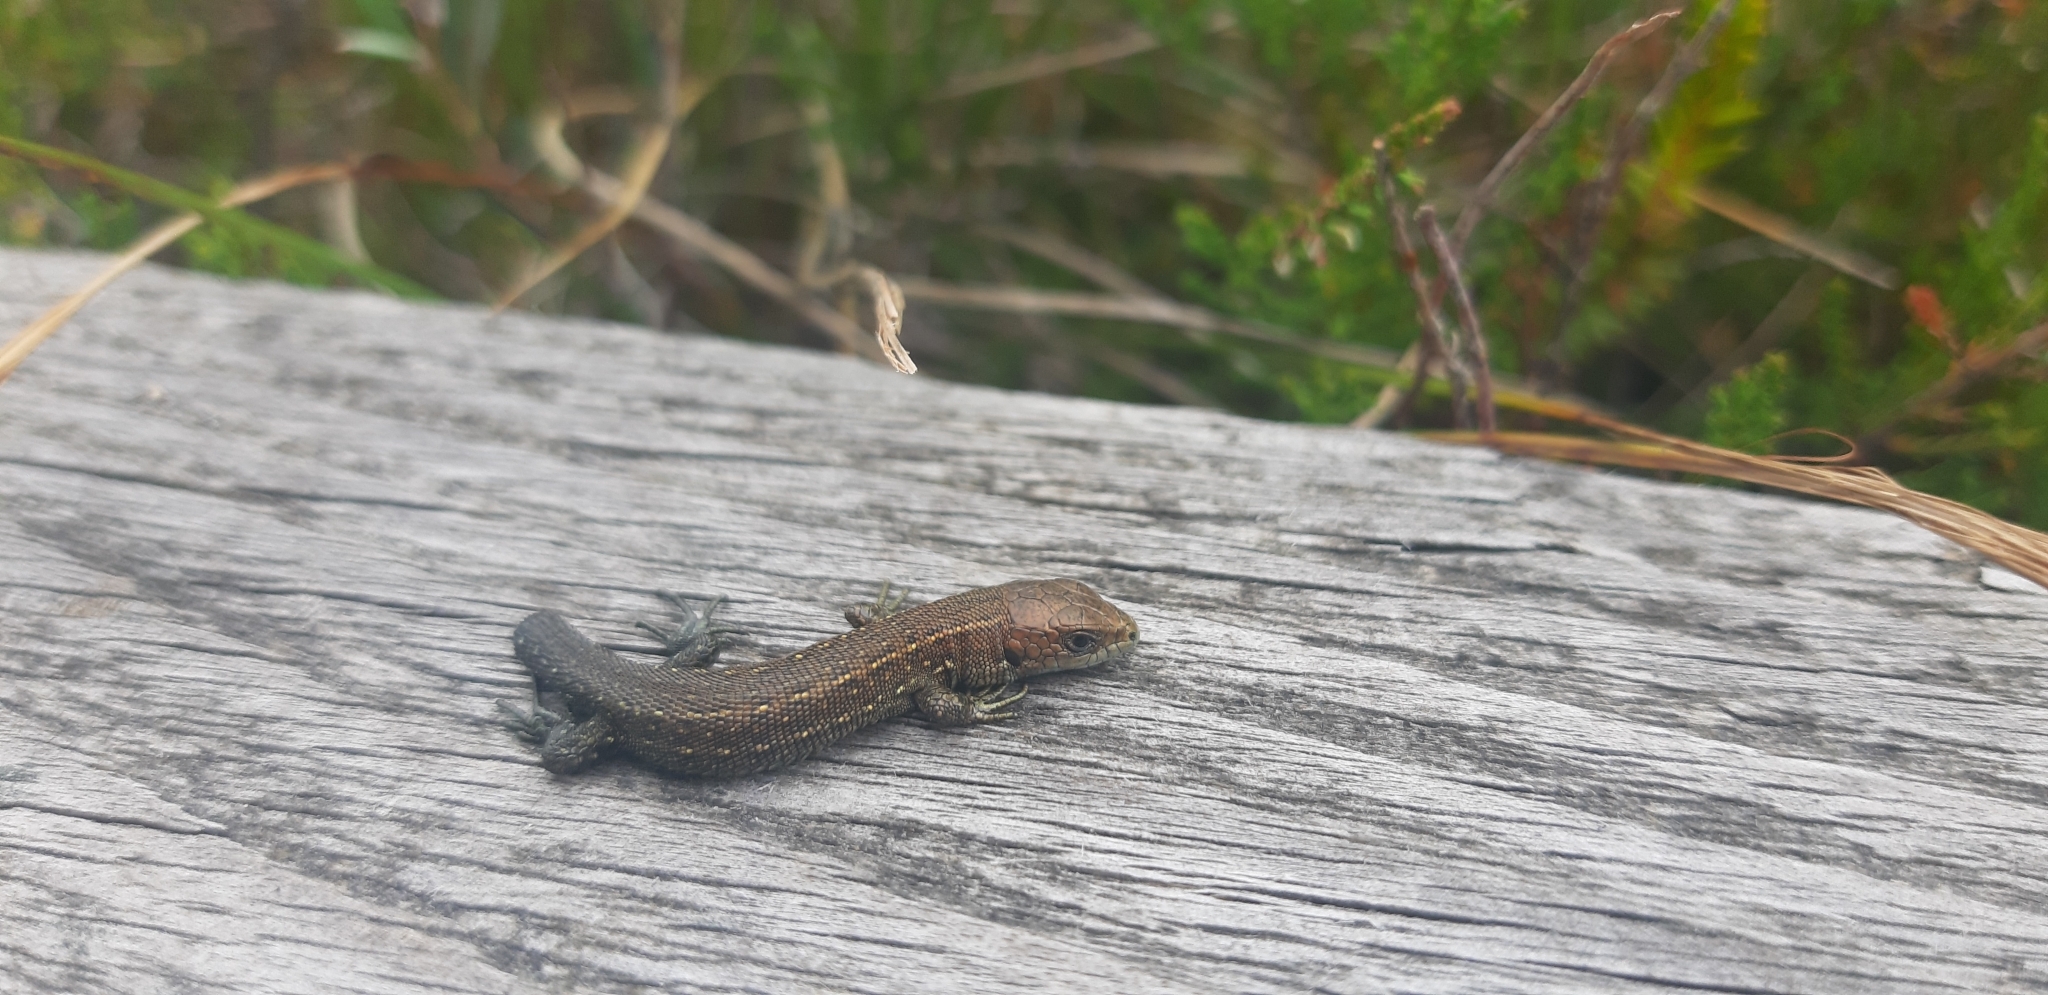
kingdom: Animalia
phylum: Chordata
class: Squamata
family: Lacertidae
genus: Zootoca
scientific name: Zootoca vivipara
